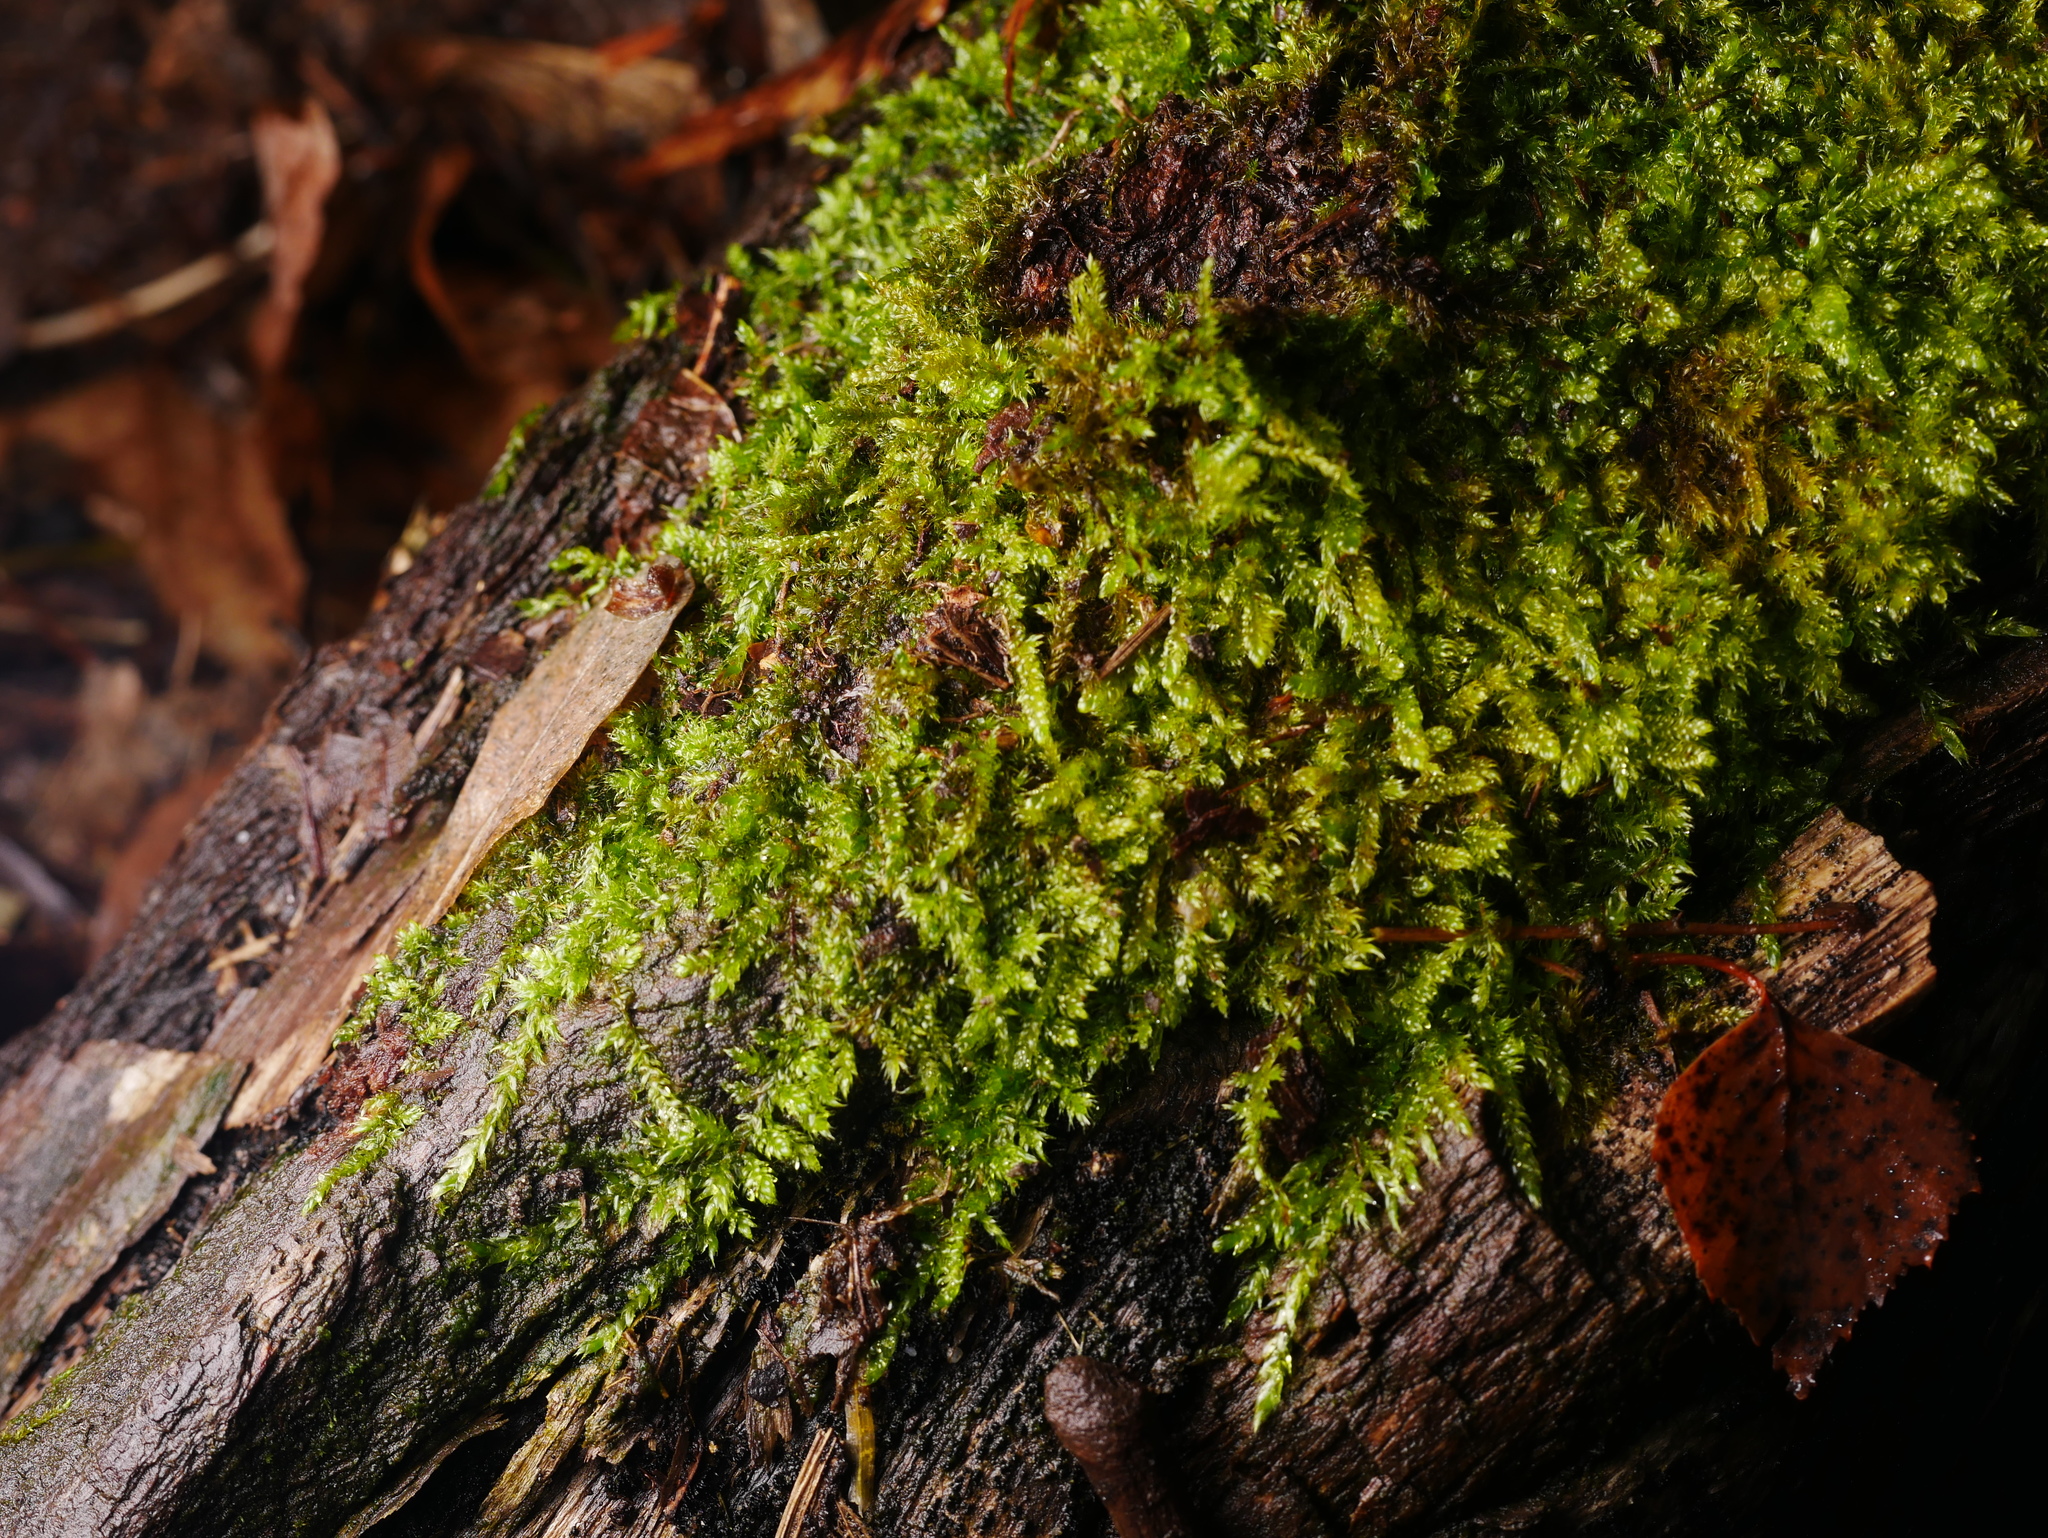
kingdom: Plantae
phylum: Bryophyta
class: Bryopsida
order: Hypnales
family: Hypnaceae
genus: Hypnum
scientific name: Hypnum cupressiforme
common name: Cypress-leaved plait-moss
